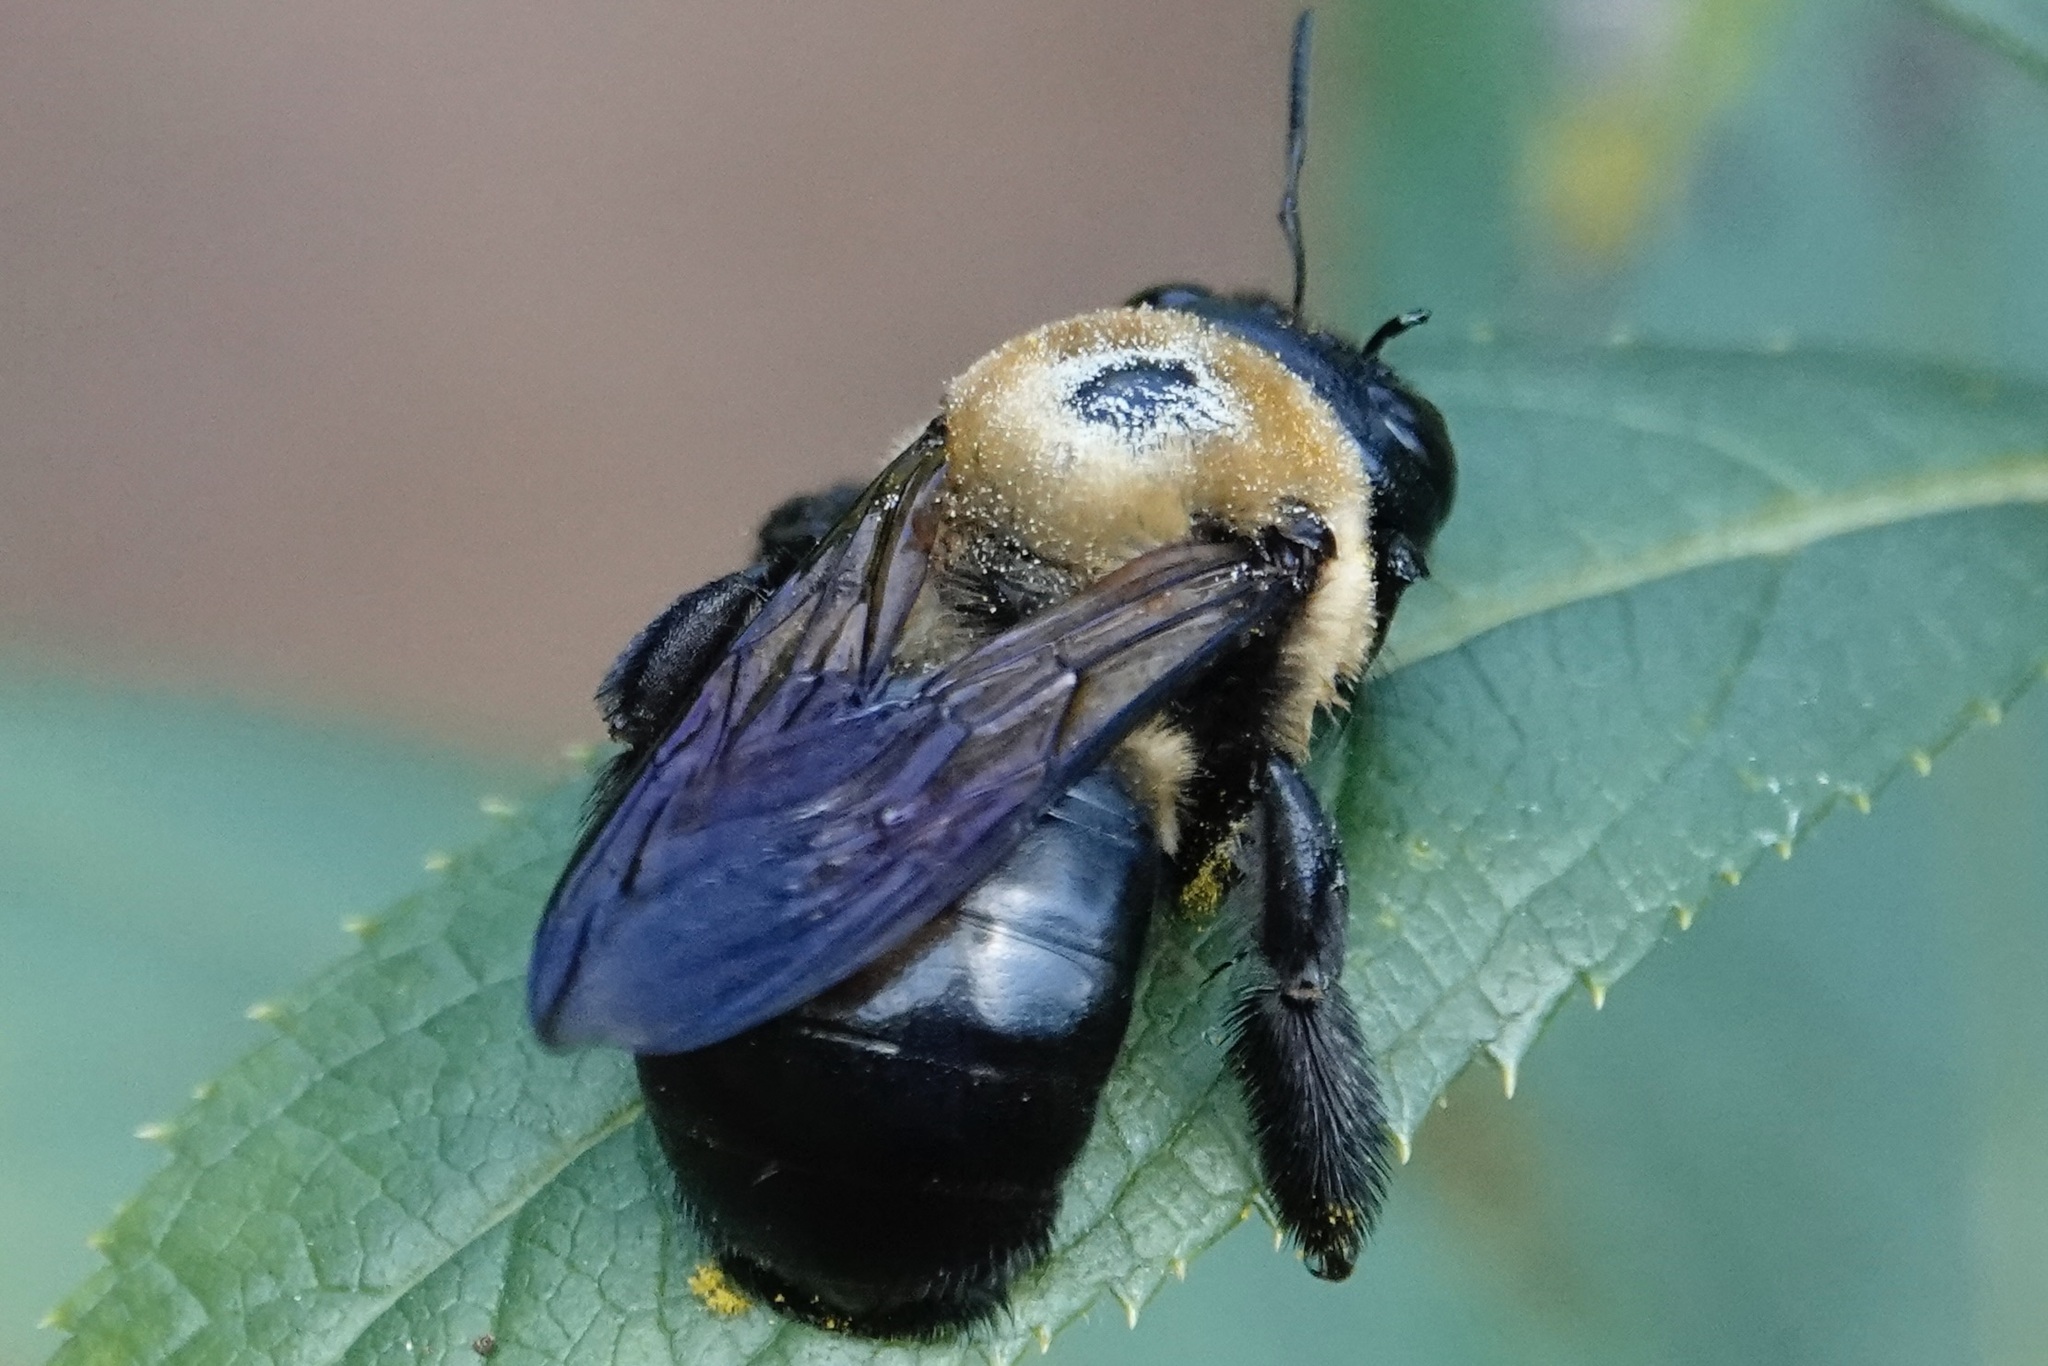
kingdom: Animalia
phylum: Arthropoda
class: Insecta
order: Hymenoptera
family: Apidae
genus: Xylocopa
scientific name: Xylocopa virginica
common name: Carpenter bee
